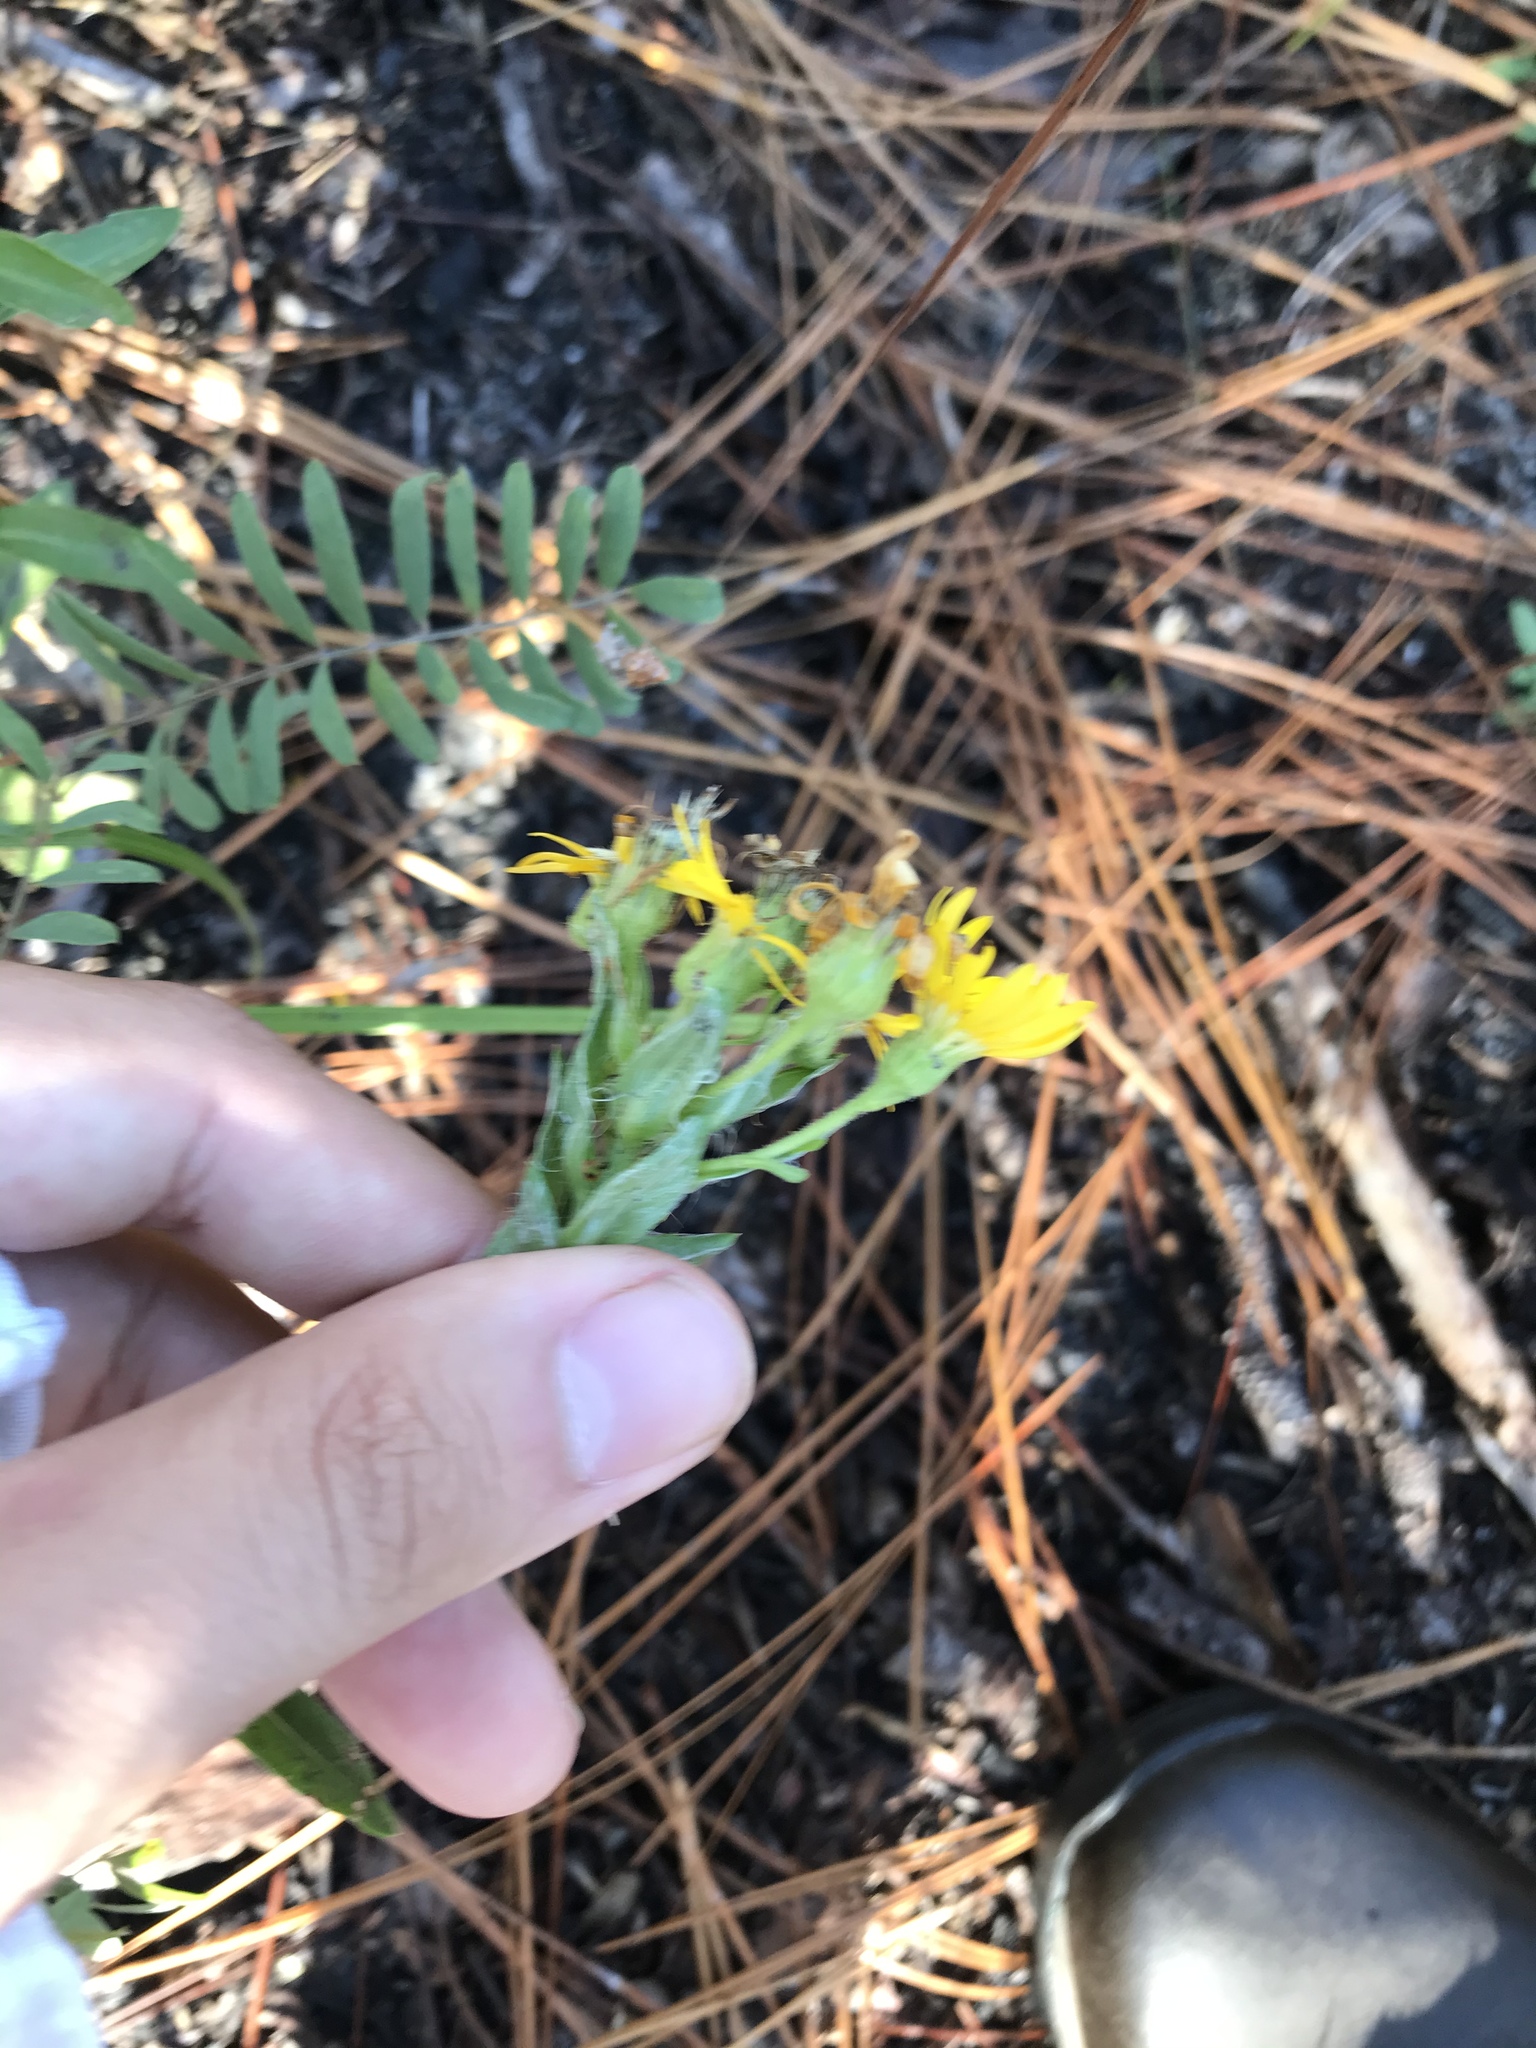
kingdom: Plantae
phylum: Tracheophyta
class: Magnoliopsida
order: Asterales
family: Asteraceae
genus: Chrysopsis
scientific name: Chrysopsis mariana
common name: Maryland golden-aster
